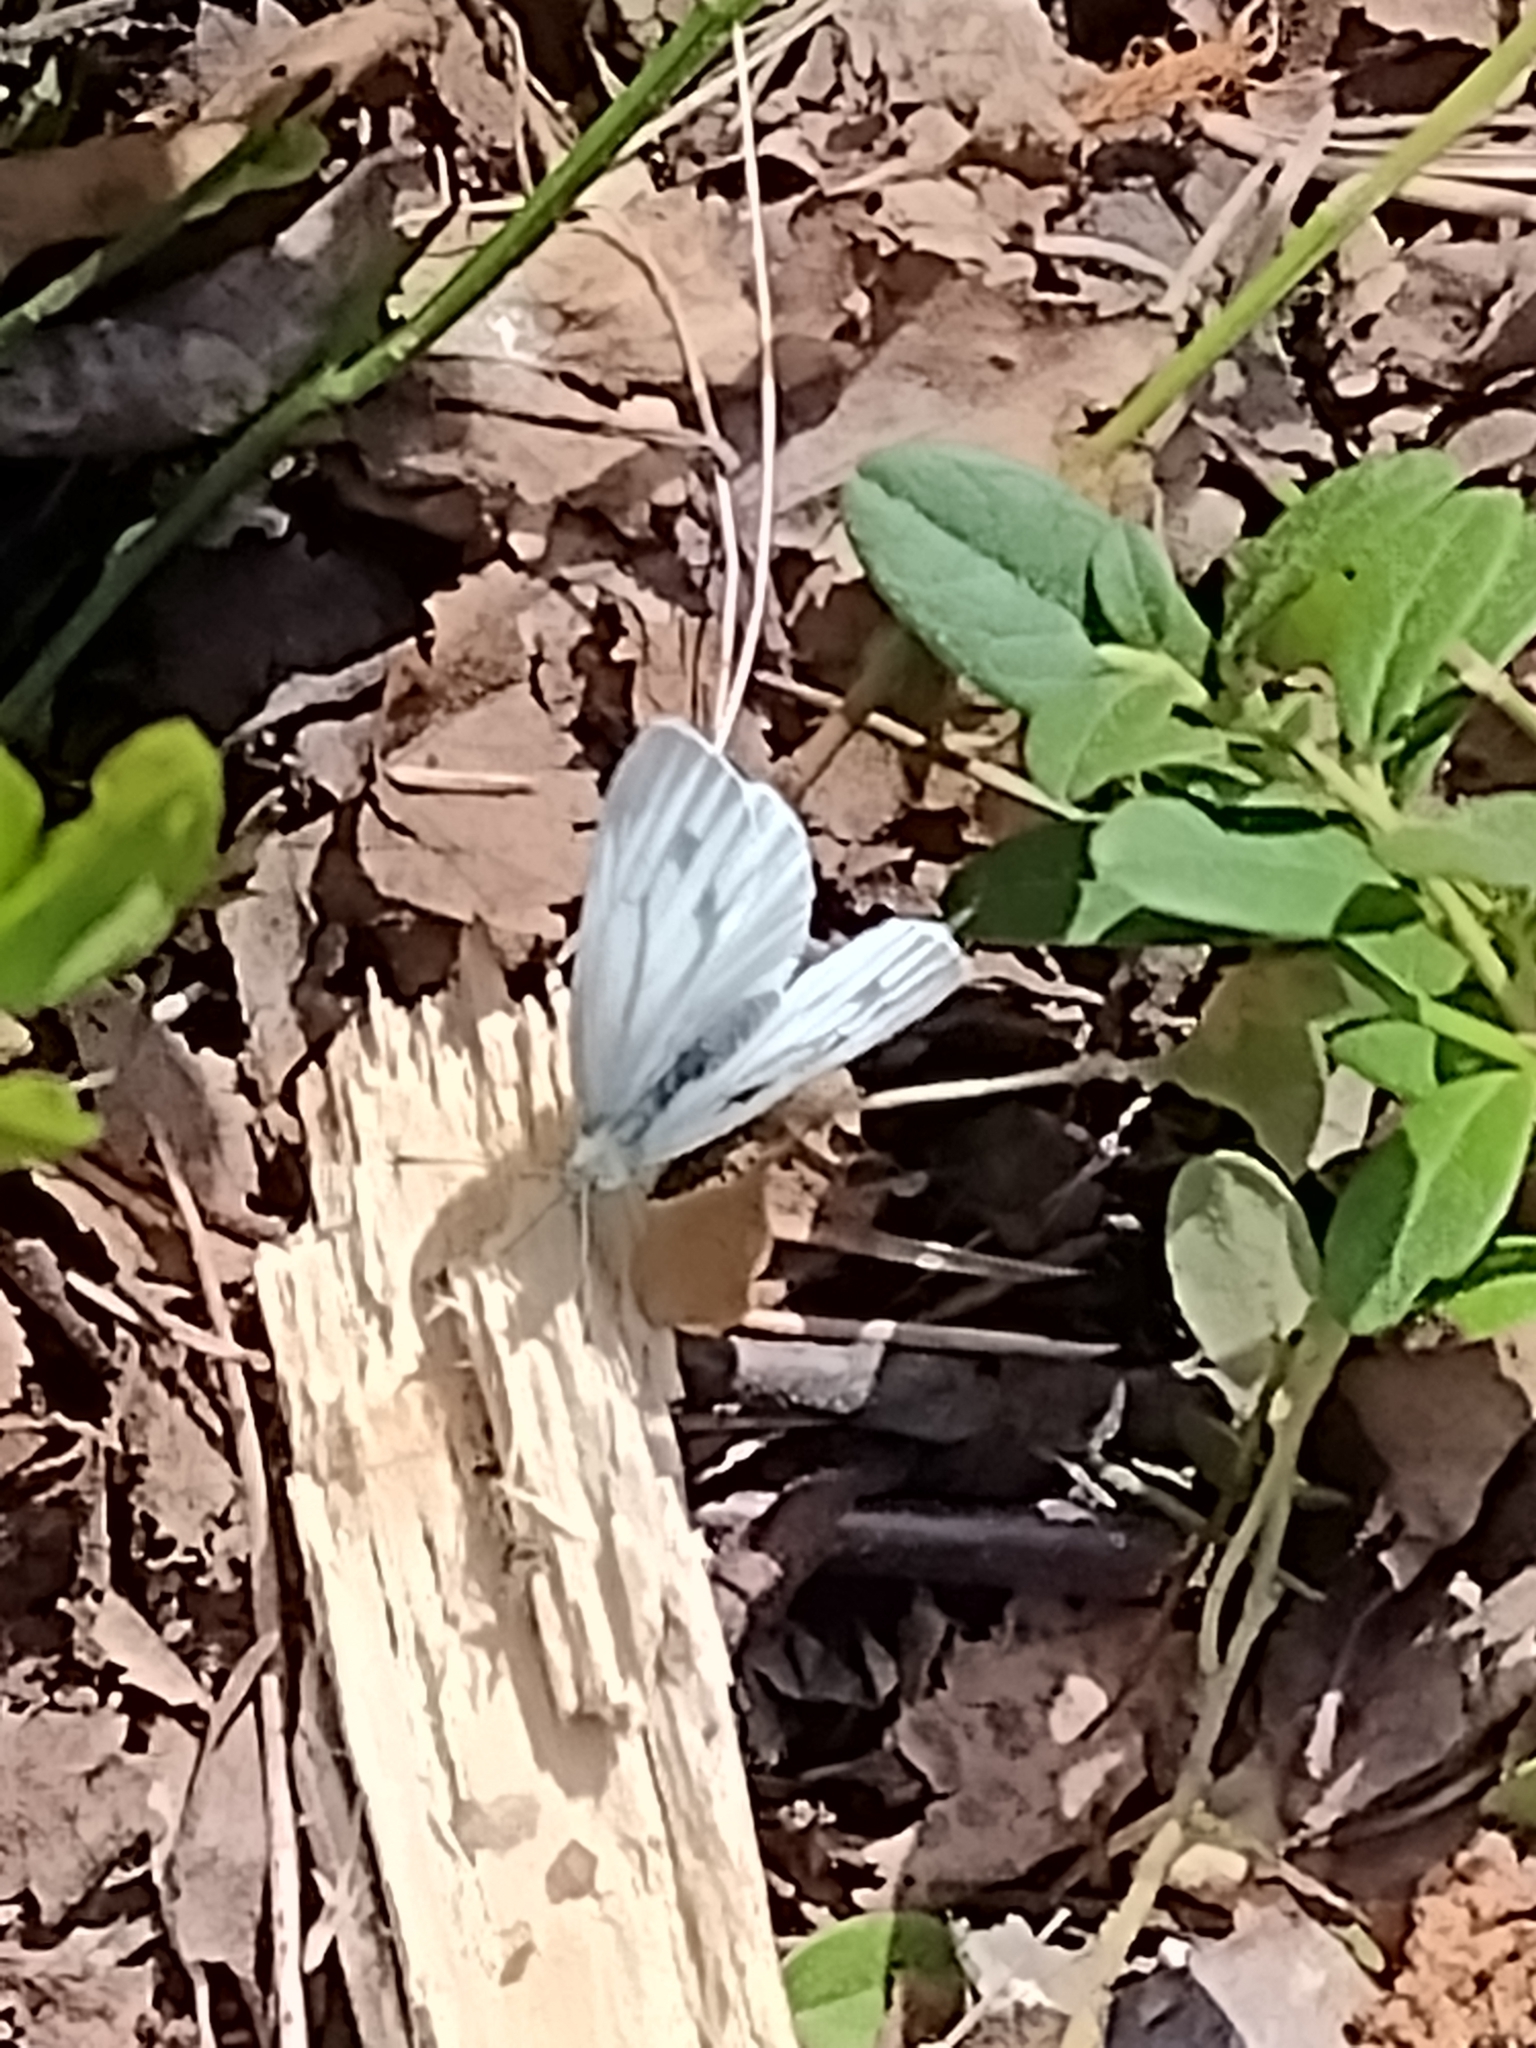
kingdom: Animalia
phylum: Arthropoda
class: Insecta
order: Lepidoptera
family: Pieridae
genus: Pieris
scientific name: Pieris napi
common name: Green-veined white
